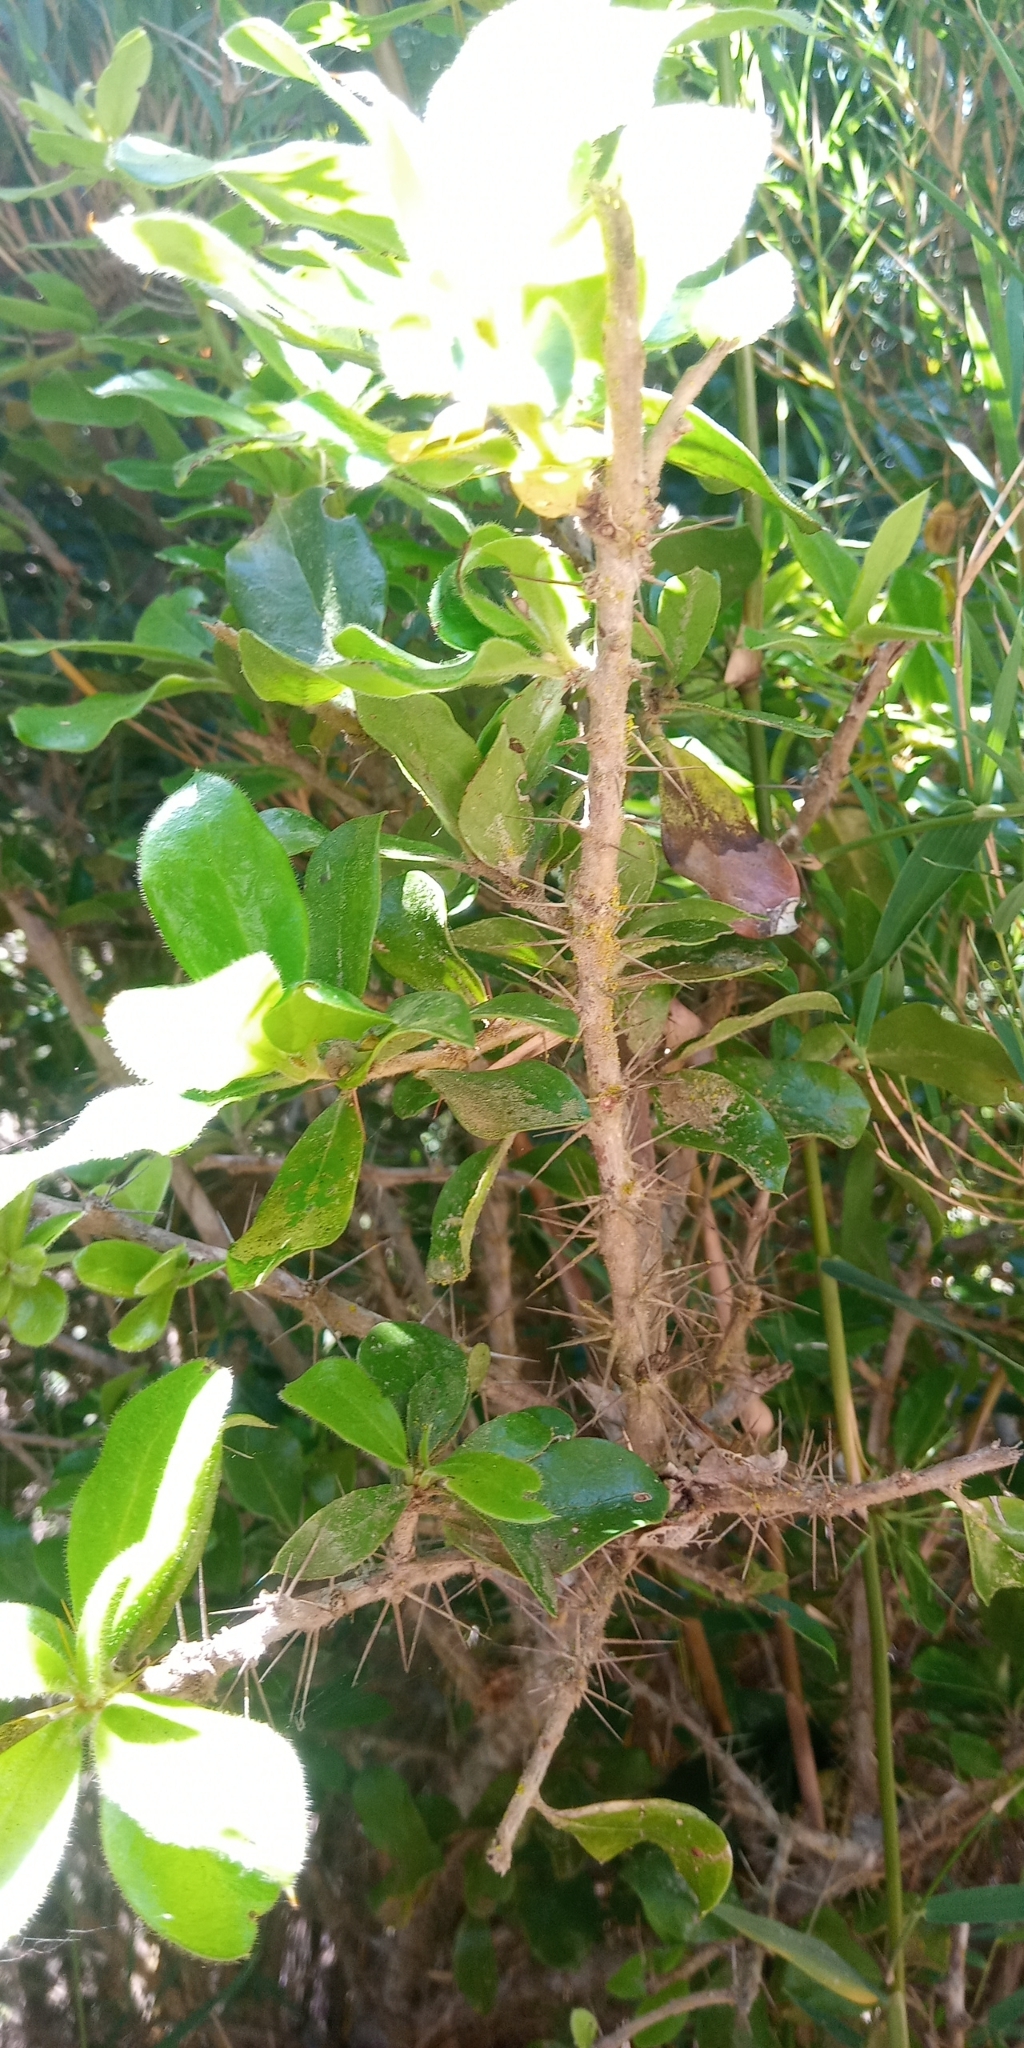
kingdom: Plantae
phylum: Tracheophyta
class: Magnoliopsida
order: Asterales
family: Asteraceae
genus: Archidasyphyllum
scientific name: Archidasyphyllum excelsum
